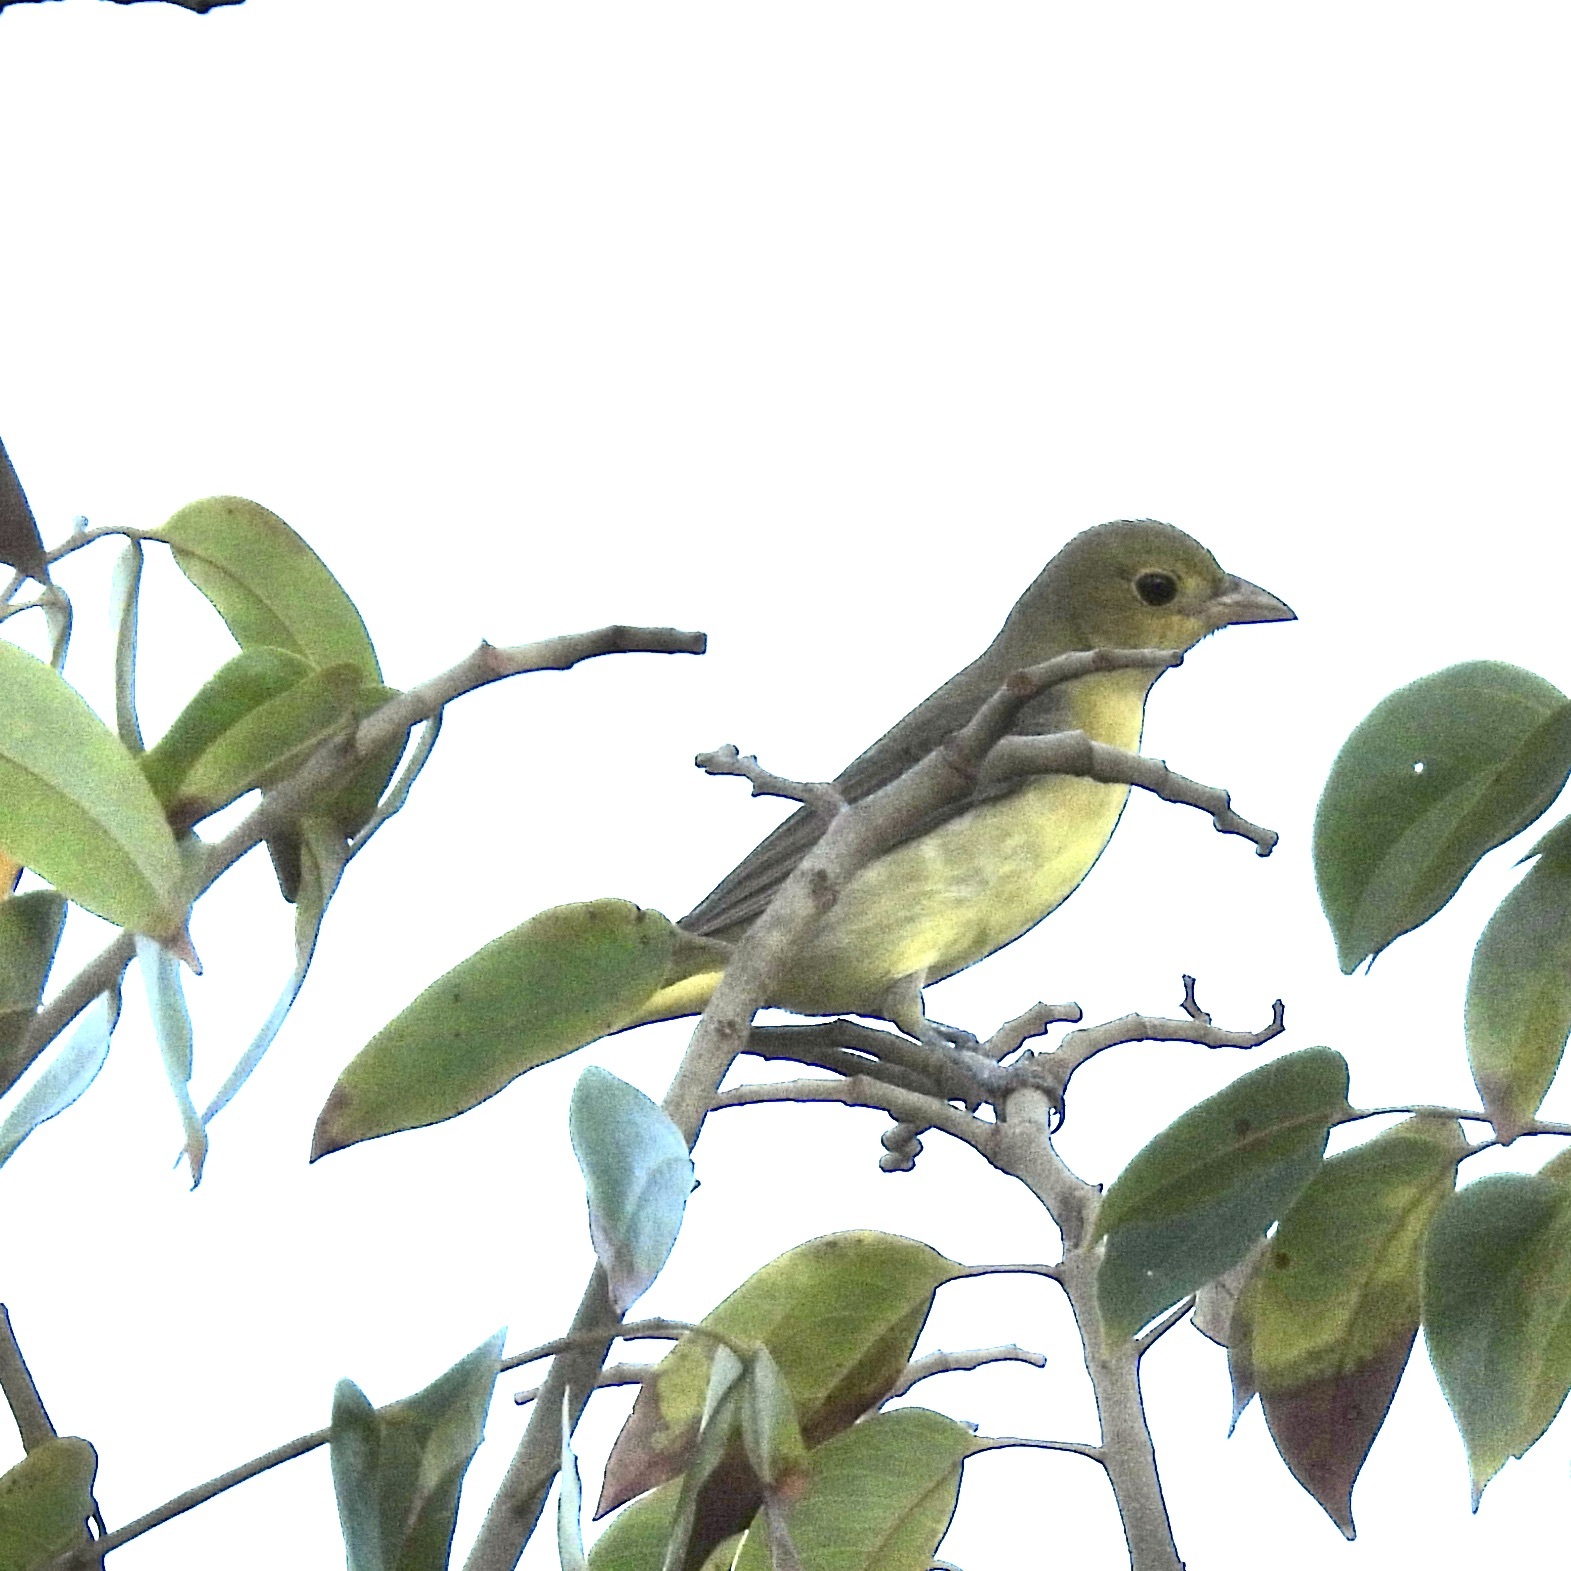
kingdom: Animalia
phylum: Chordata
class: Aves
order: Passeriformes
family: Cardinalidae
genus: Piranga
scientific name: Piranga olivacea
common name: Scarlet tanager
